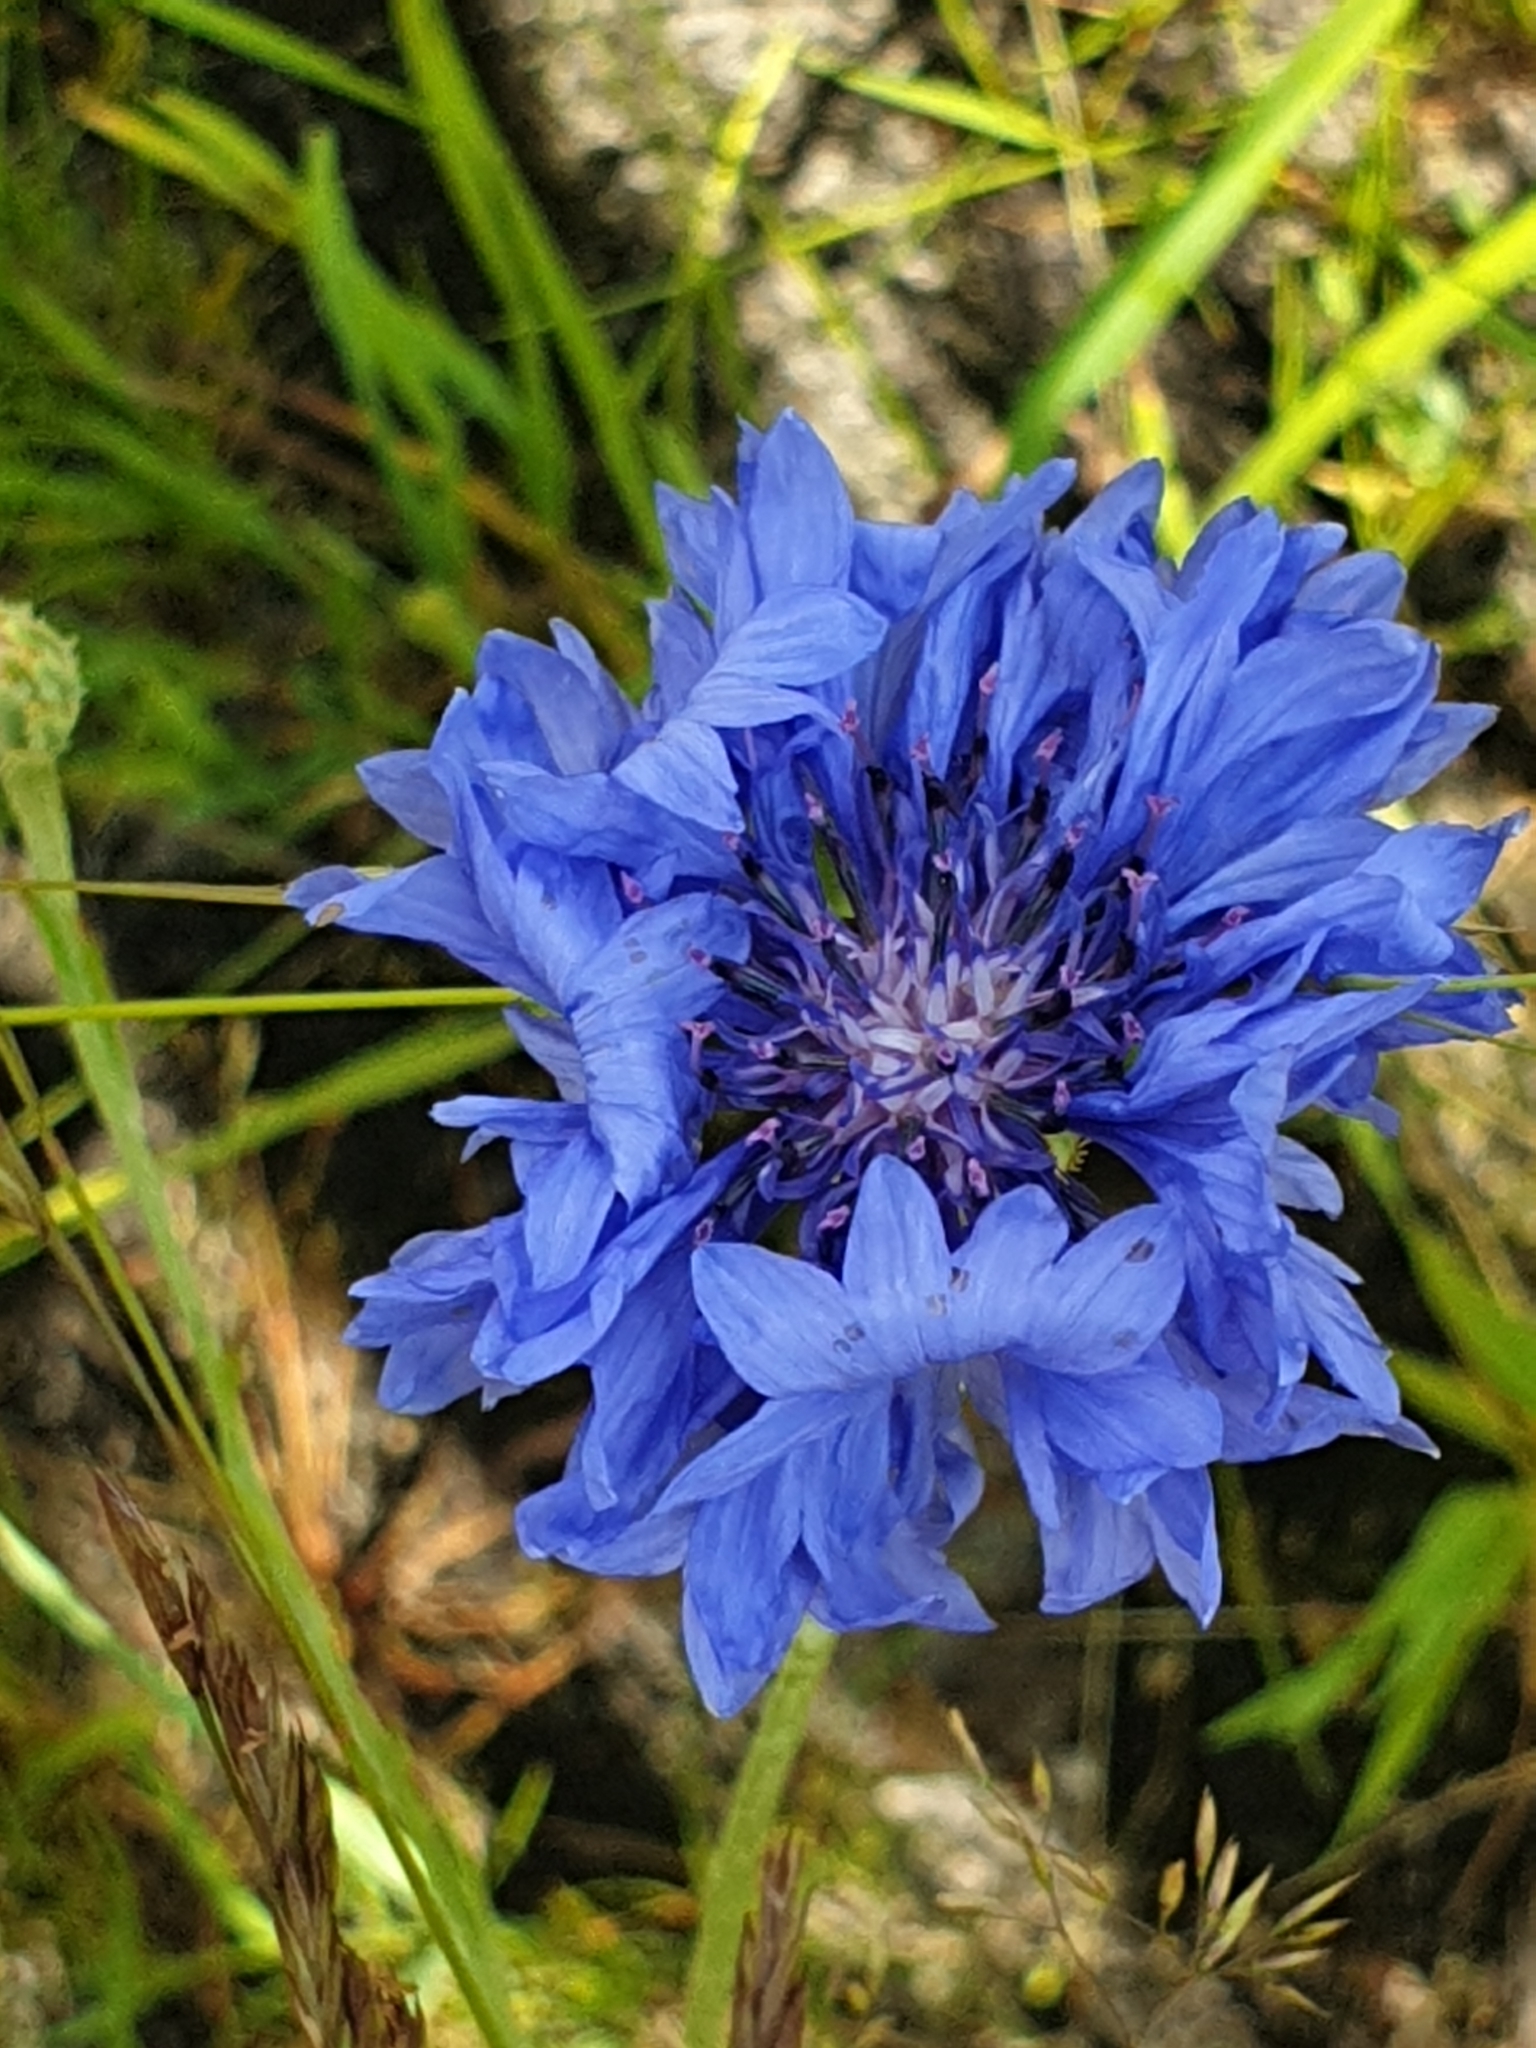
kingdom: Plantae
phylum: Tracheophyta
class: Magnoliopsida
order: Asterales
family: Asteraceae
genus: Centaurea
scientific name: Centaurea cyanus
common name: Cornflower
